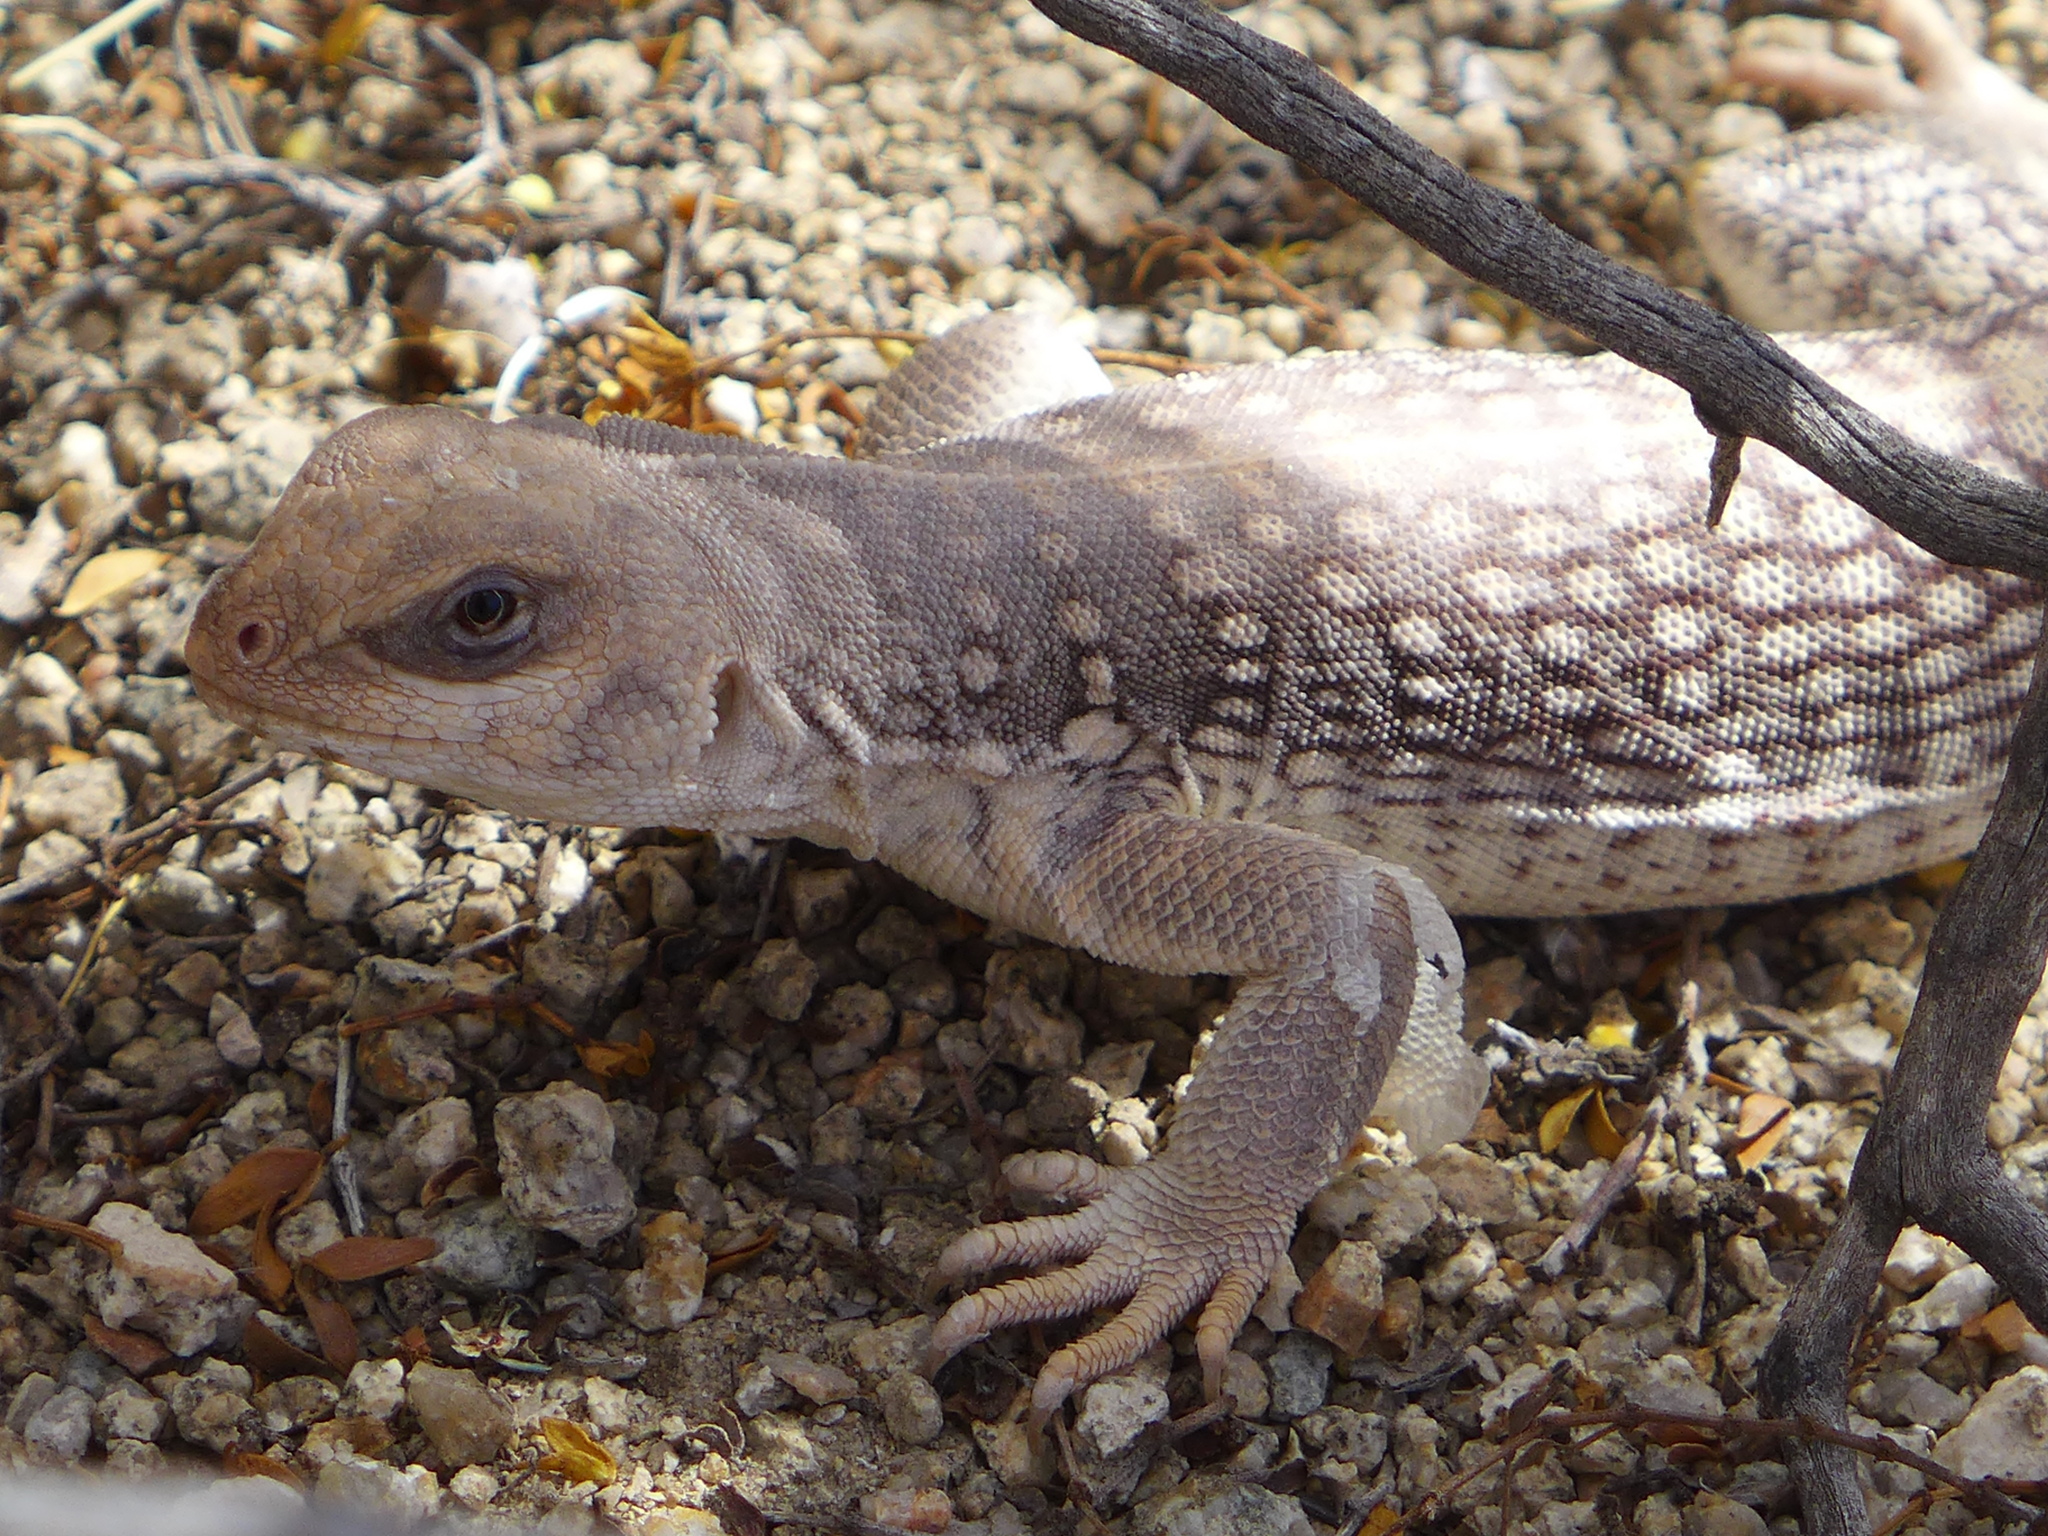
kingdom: Animalia
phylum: Chordata
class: Squamata
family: Iguanidae
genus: Dipsosaurus
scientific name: Dipsosaurus dorsalis
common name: Desert iguana
